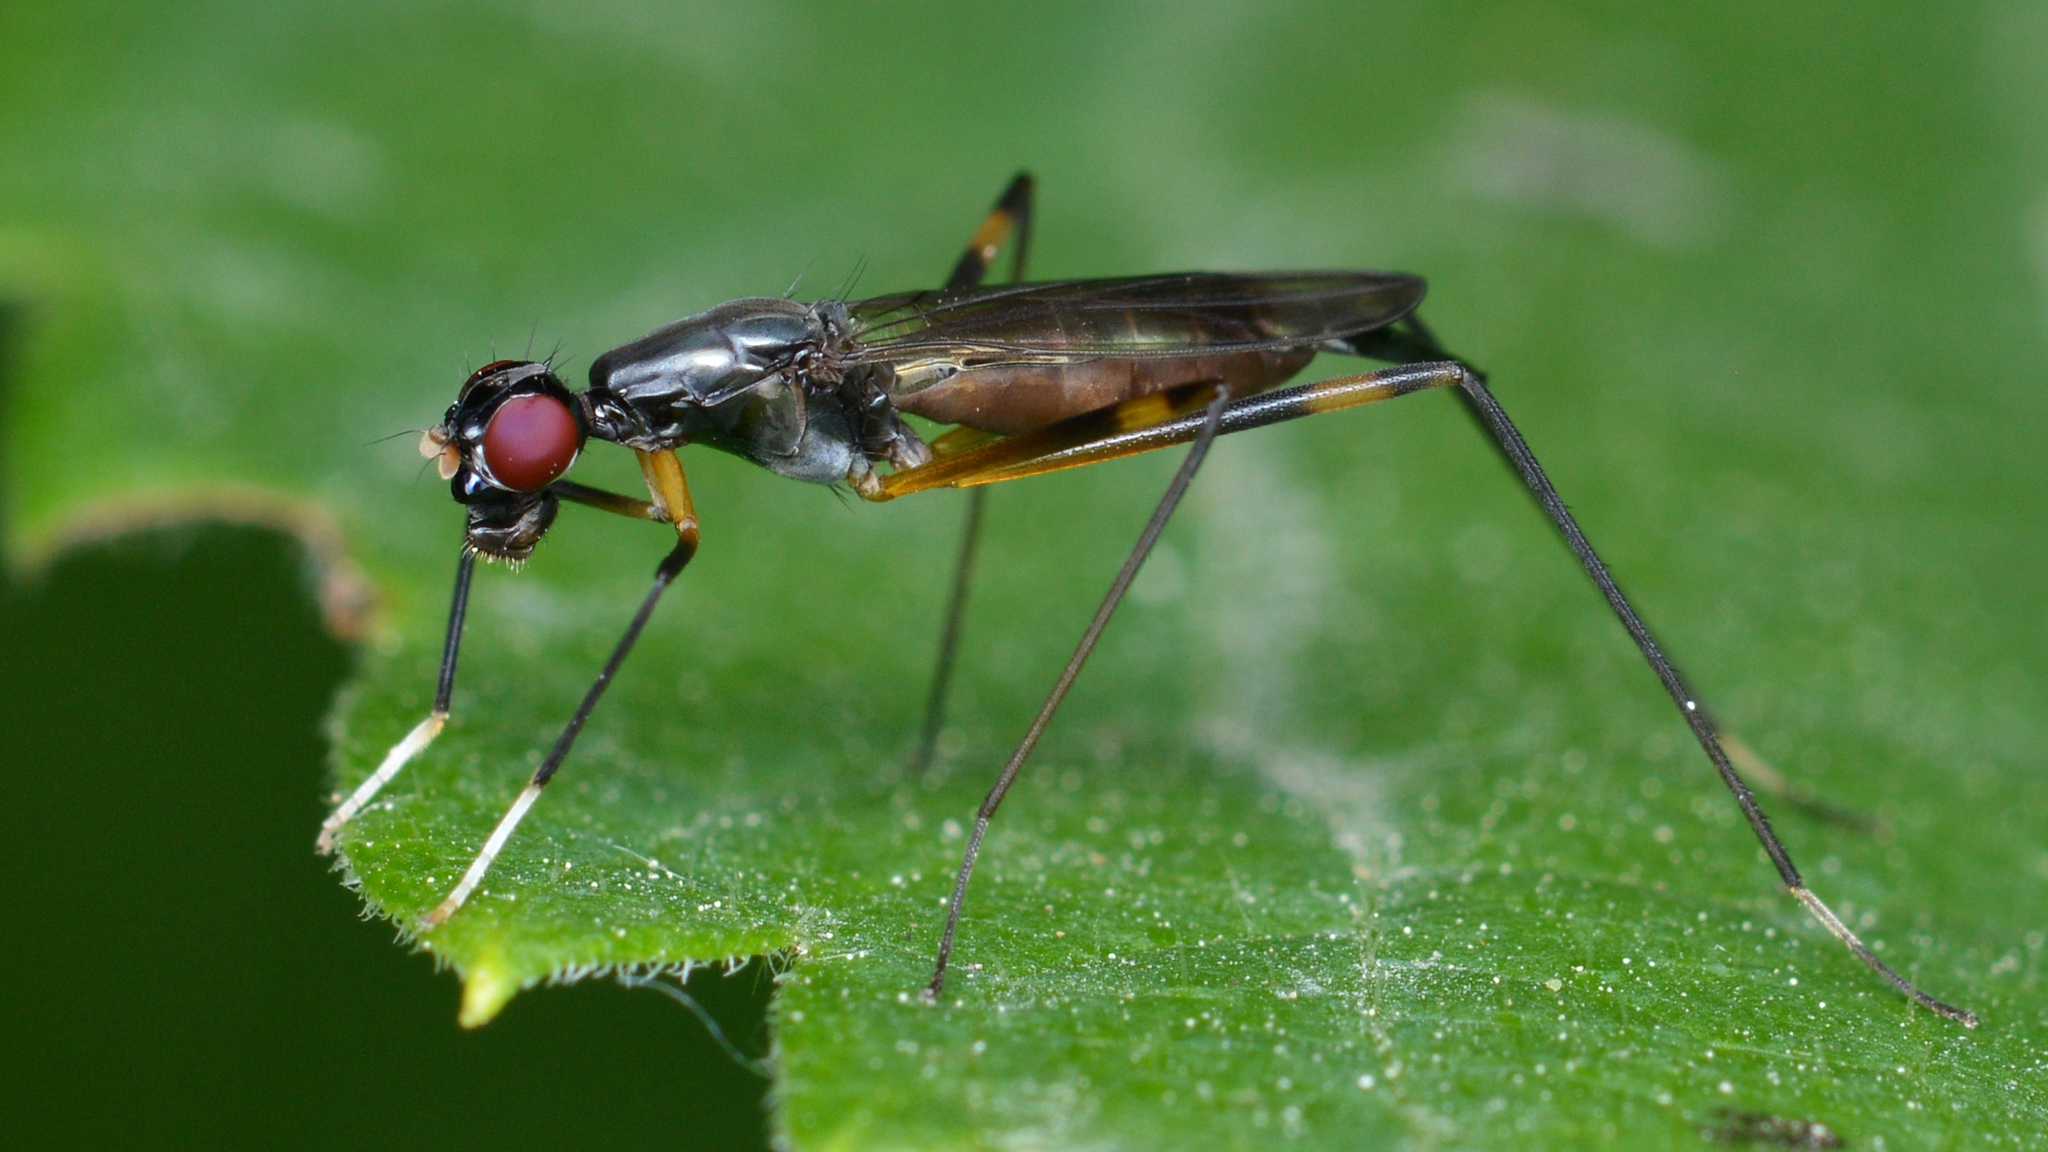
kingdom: Animalia
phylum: Arthropoda
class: Insecta
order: Diptera
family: Micropezidae
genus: Rainieria
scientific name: Rainieria antennaepes
